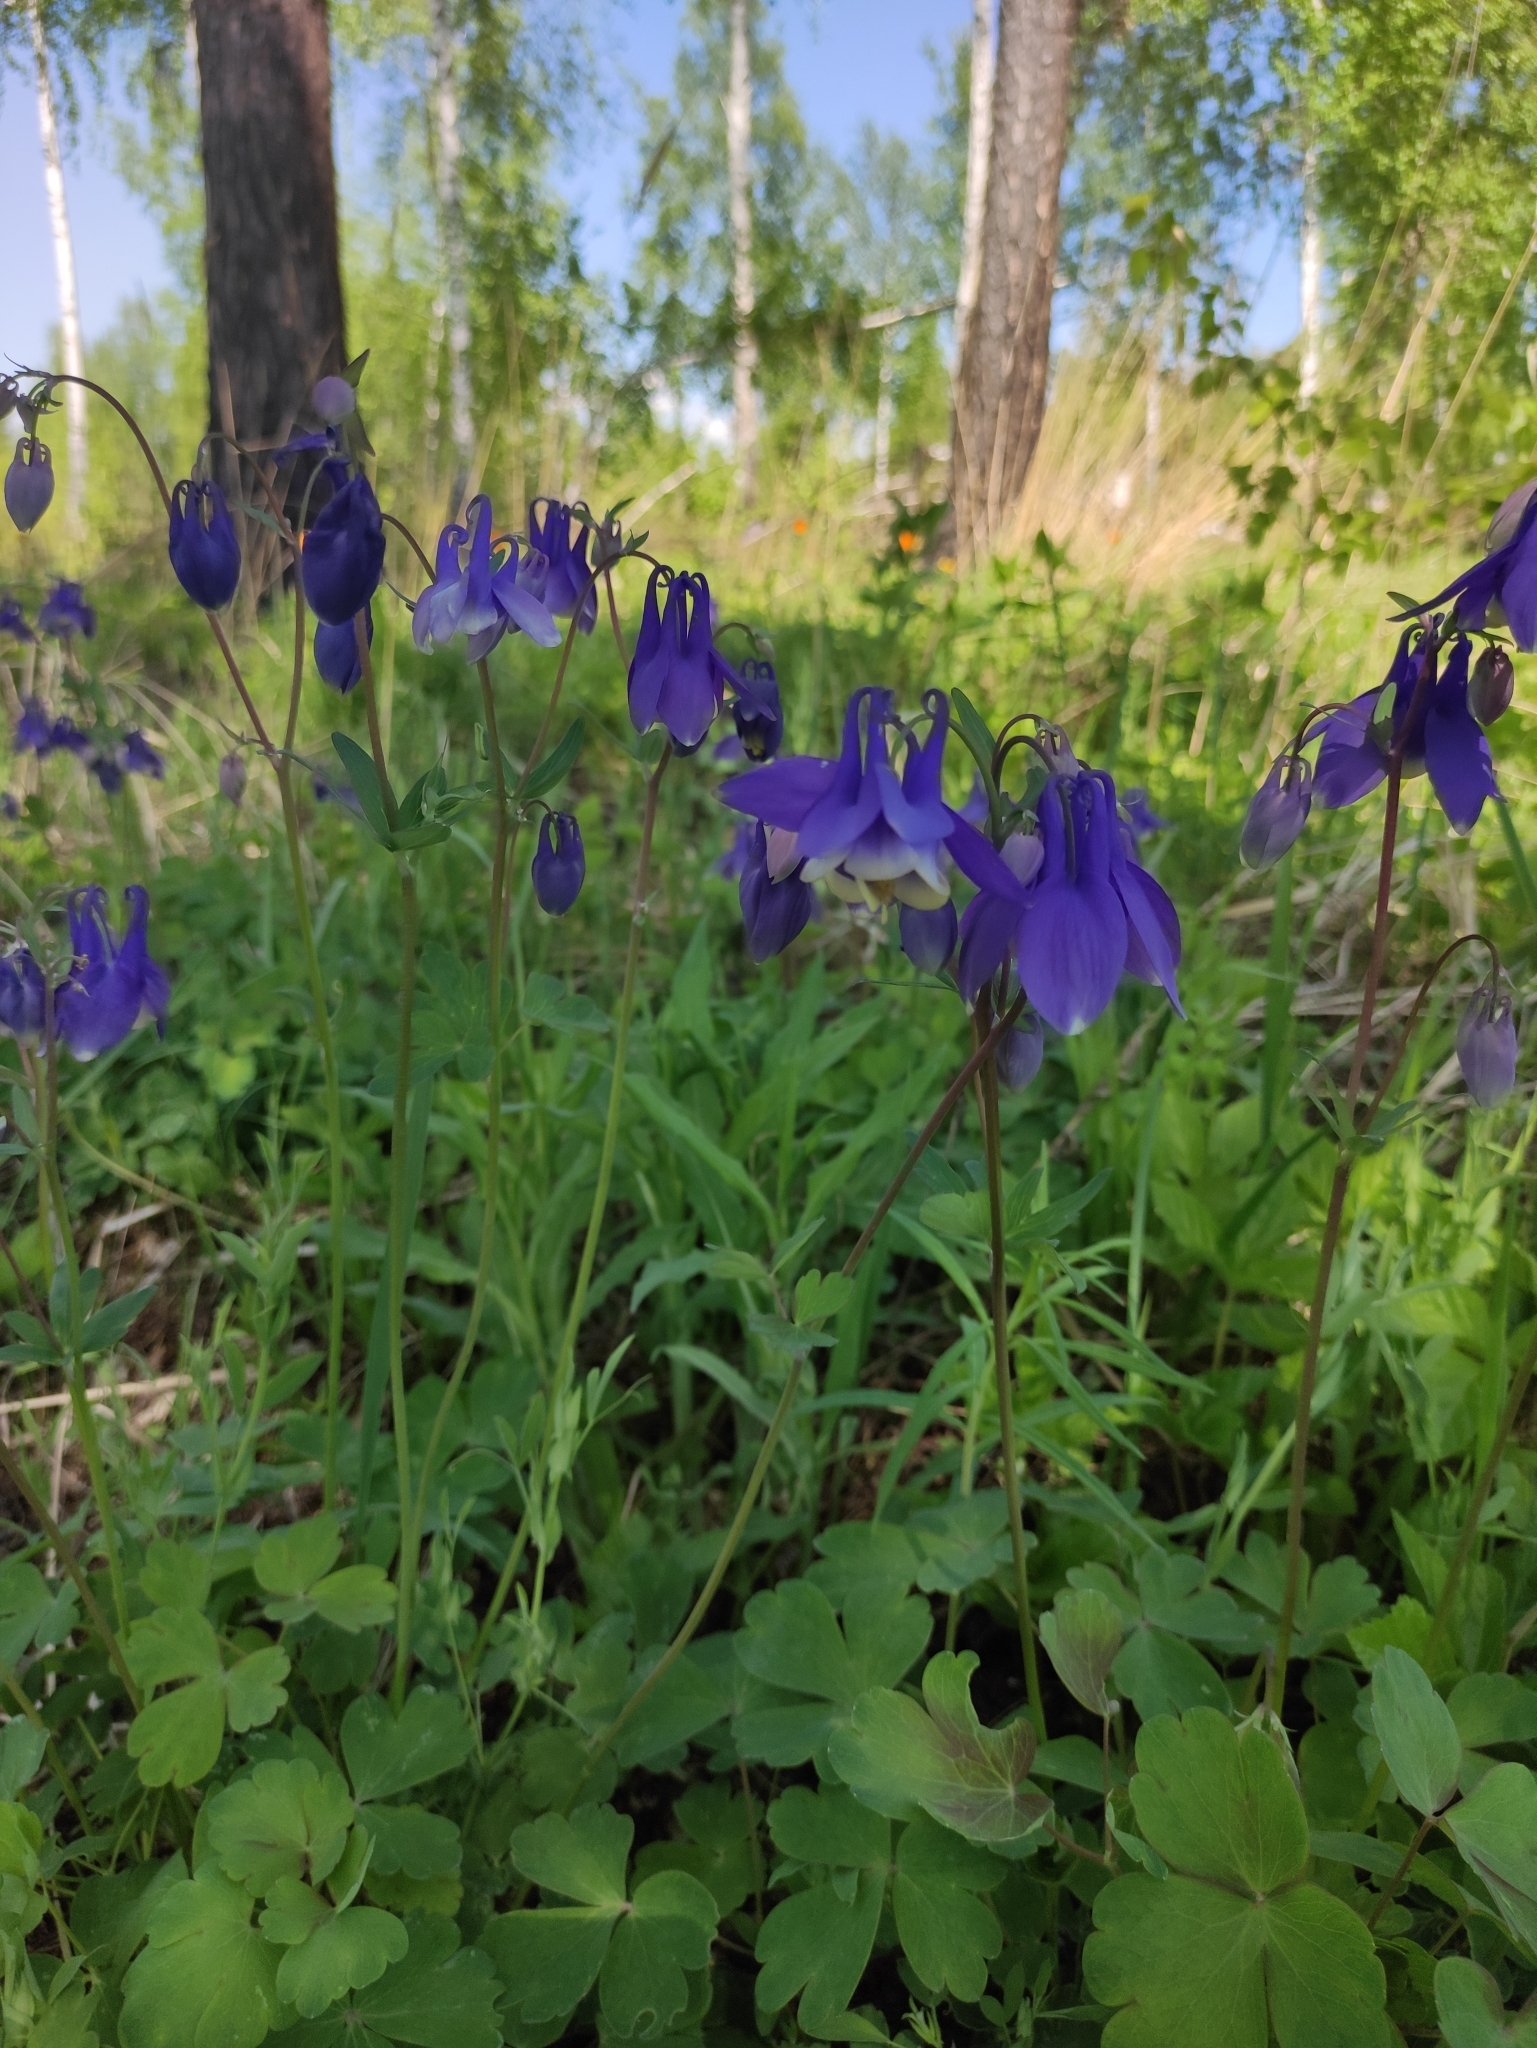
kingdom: Plantae
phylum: Tracheophyta
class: Magnoliopsida
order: Ranunculales
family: Ranunculaceae
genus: Aquilegia
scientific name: Aquilegia sibirica
